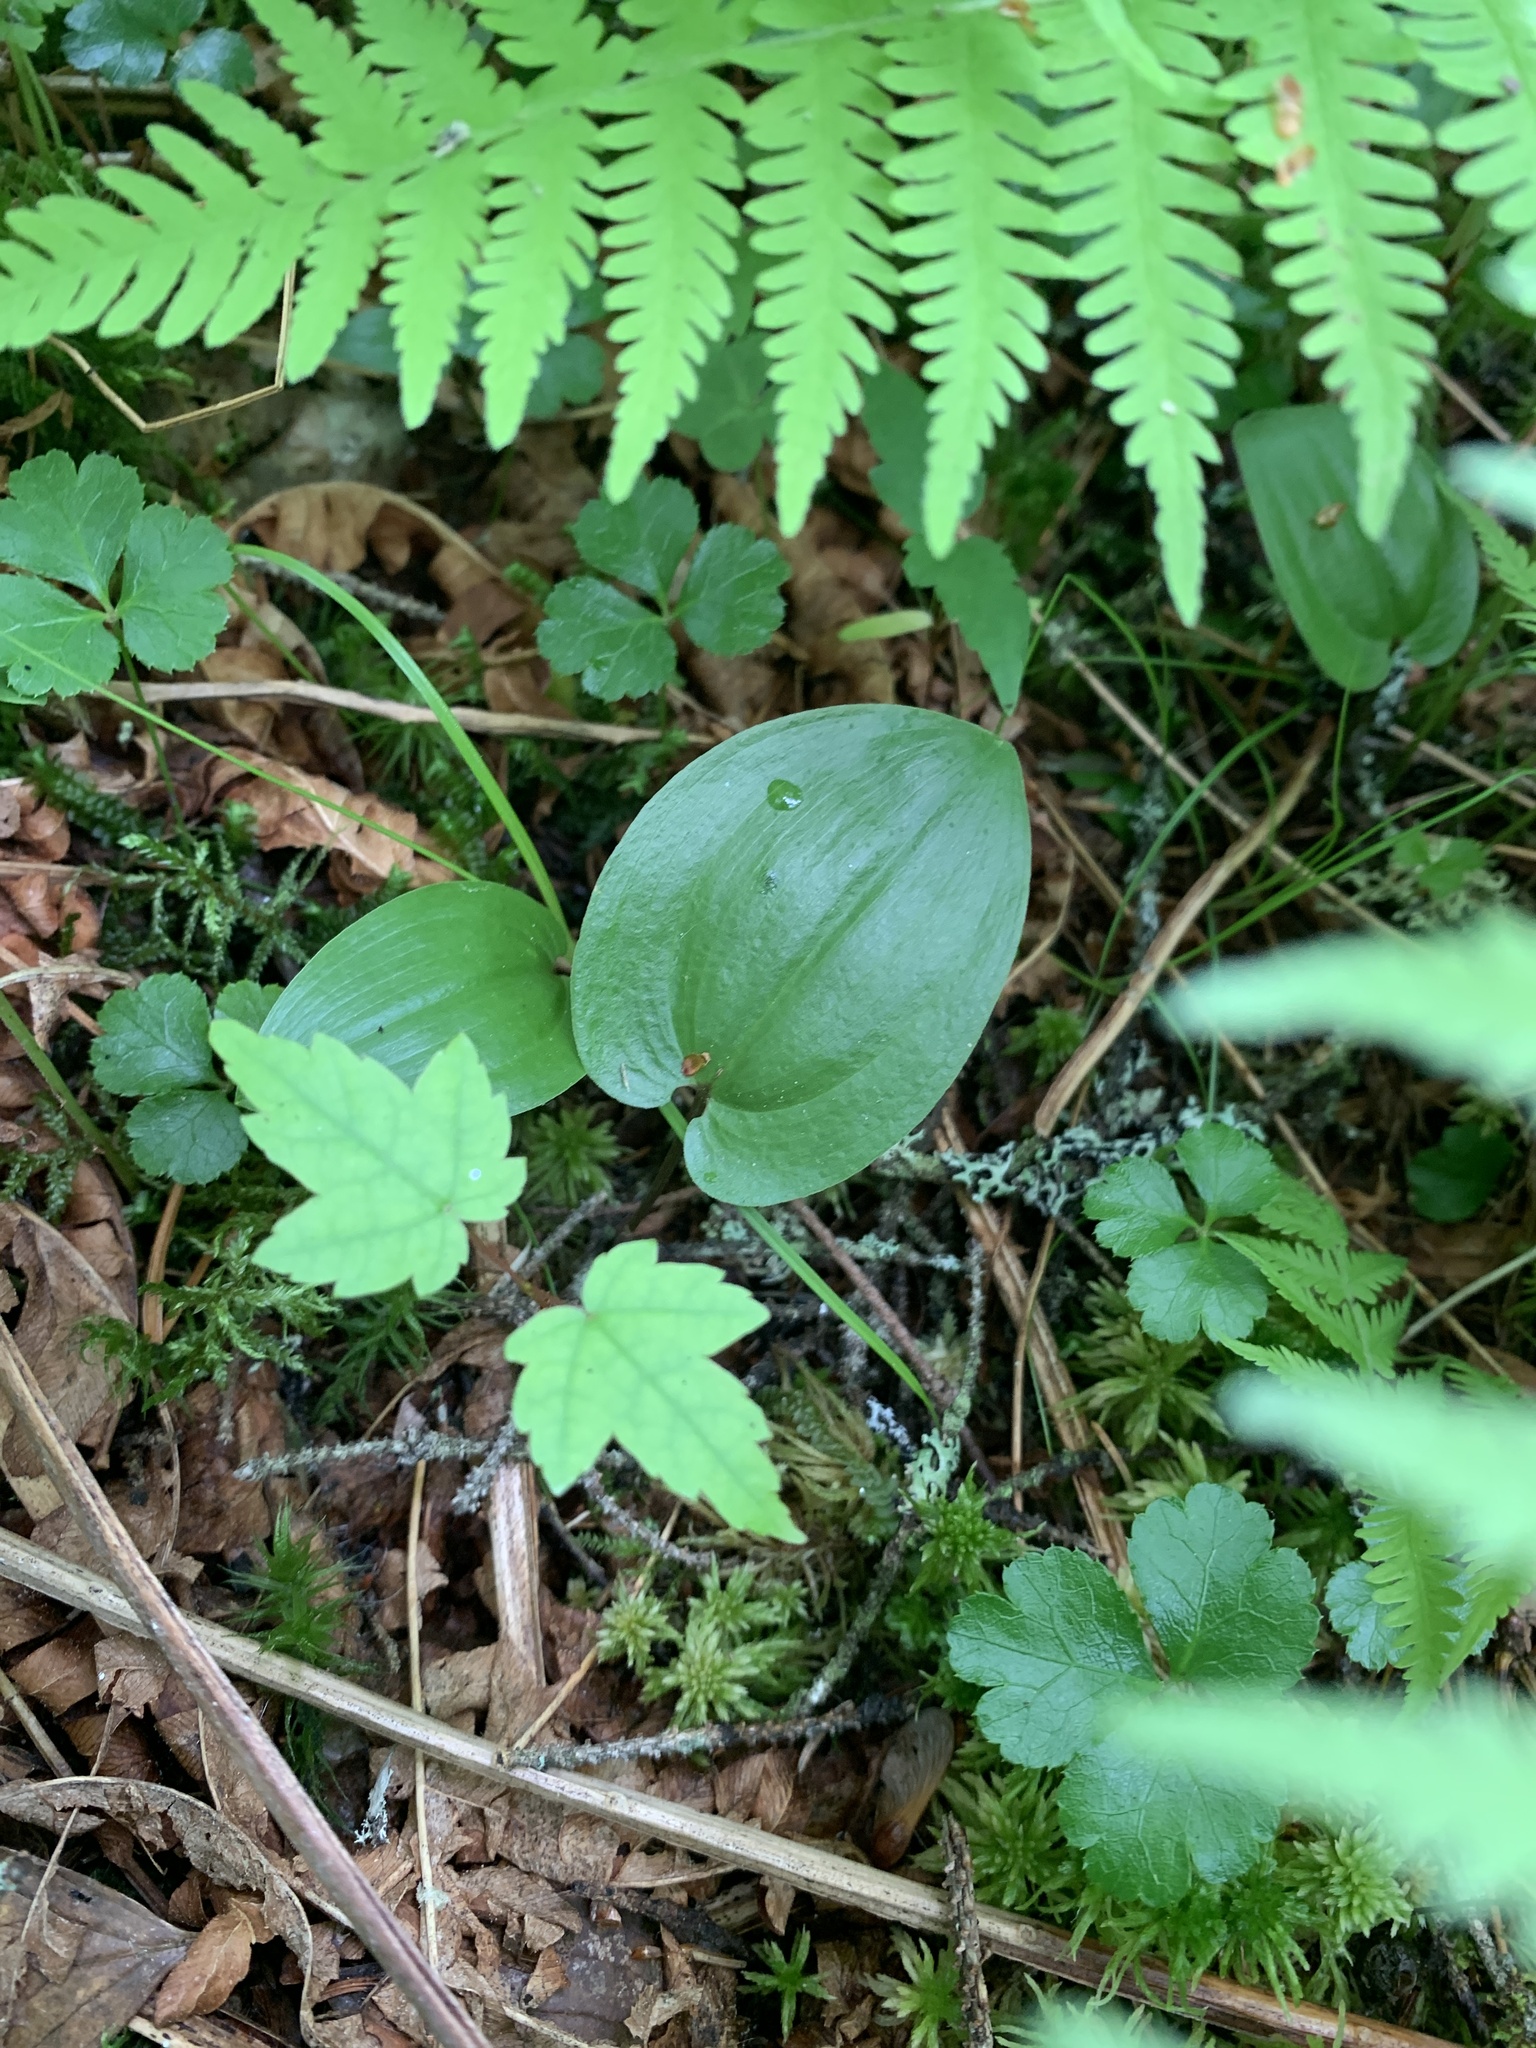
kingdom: Plantae
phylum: Tracheophyta
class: Liliopsida
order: Asparagales
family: Asparagaceae
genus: Maianthemum
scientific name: Maianthemum canadense
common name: False lily-of-the-valley
